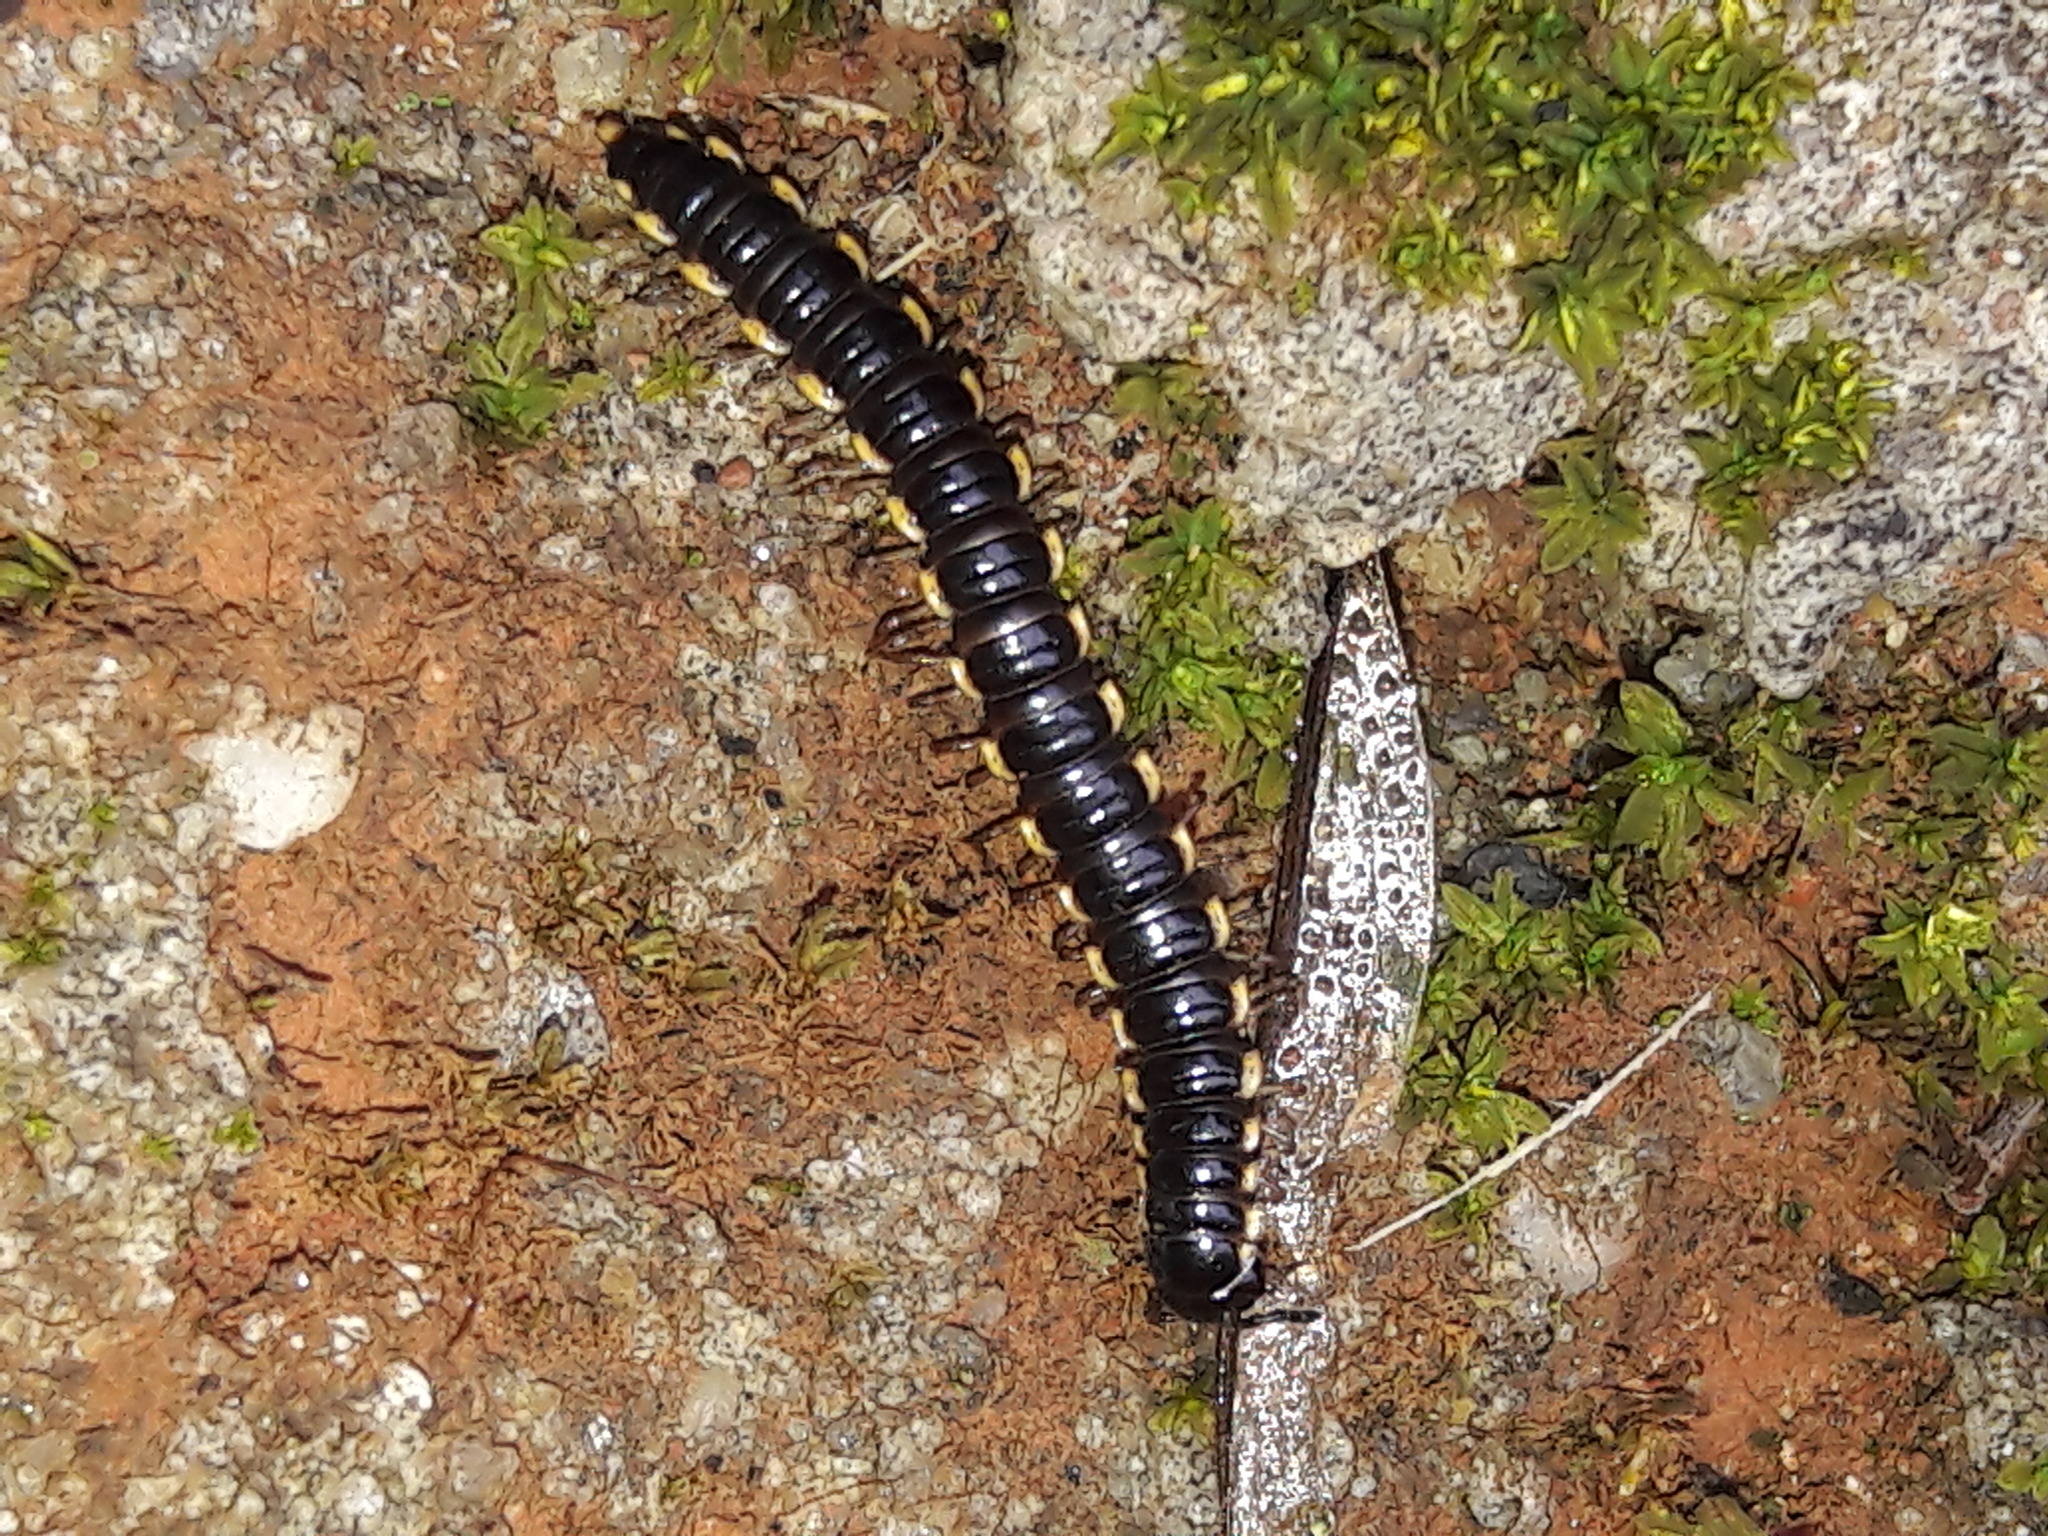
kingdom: Animalia
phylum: Arthropoda
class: Diplopoda
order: Polydesmida
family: Paradoxosomatidae
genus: Orthomorpha
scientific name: Orthomorpha coarctata
